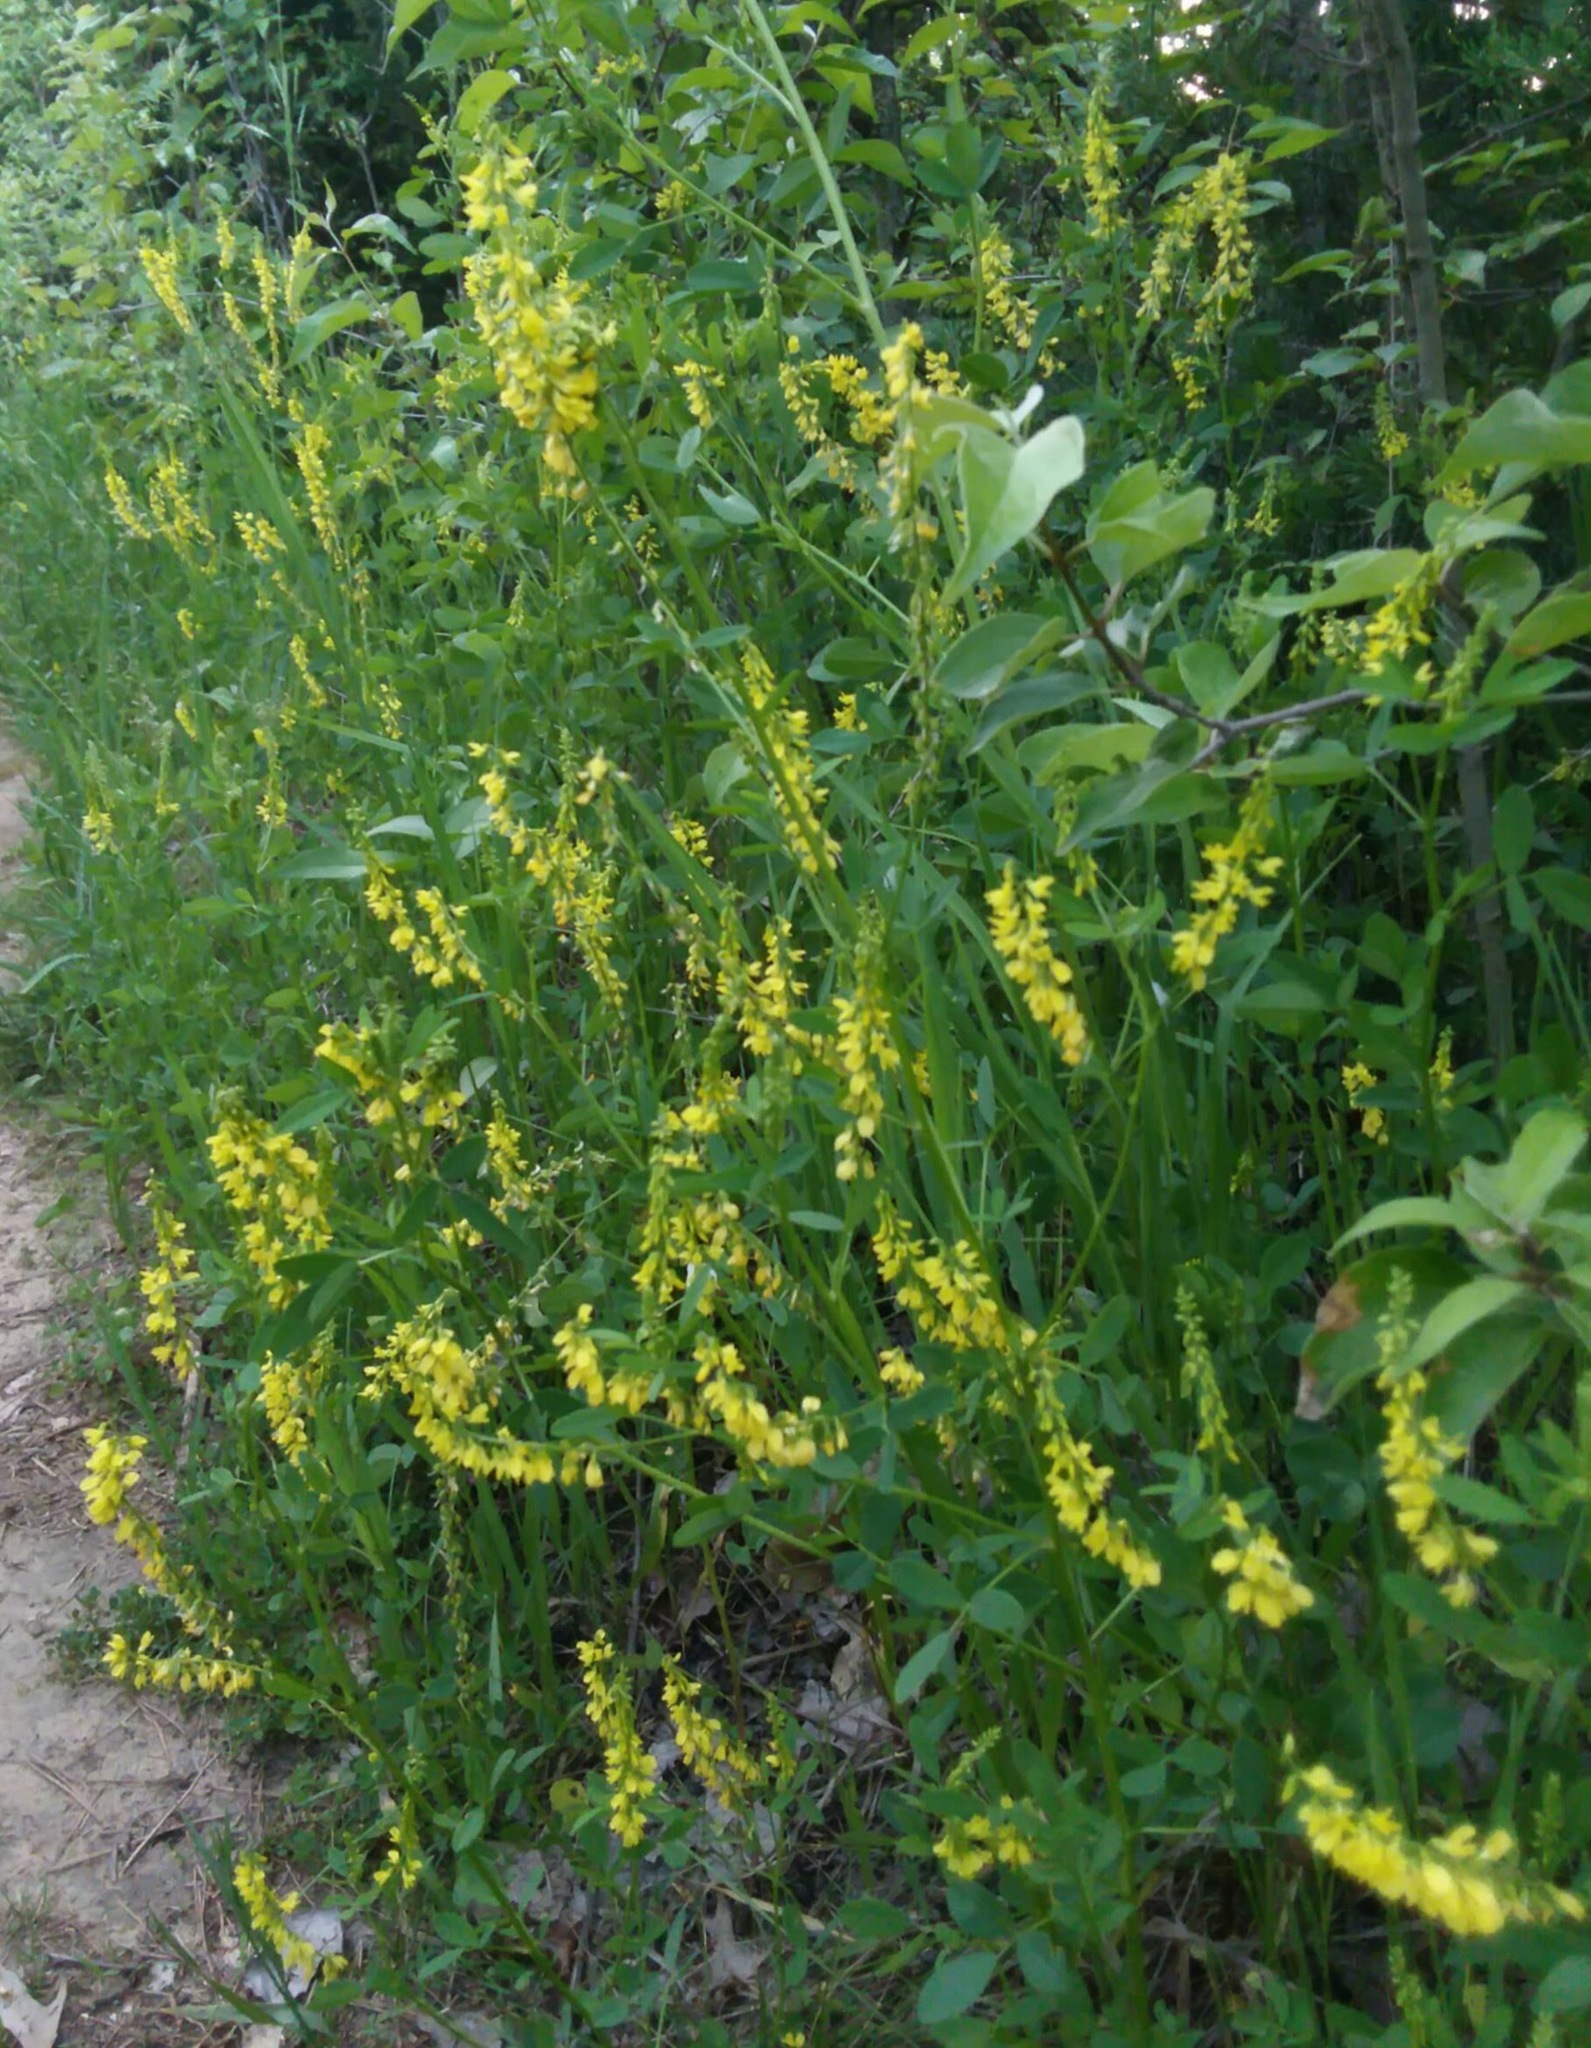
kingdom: Plantae
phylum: Tracheophyta
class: Magnoliopsida
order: Fabales
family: Fabaceae
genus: Melilotus
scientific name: Melilotus officinalis
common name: Sweetclover
